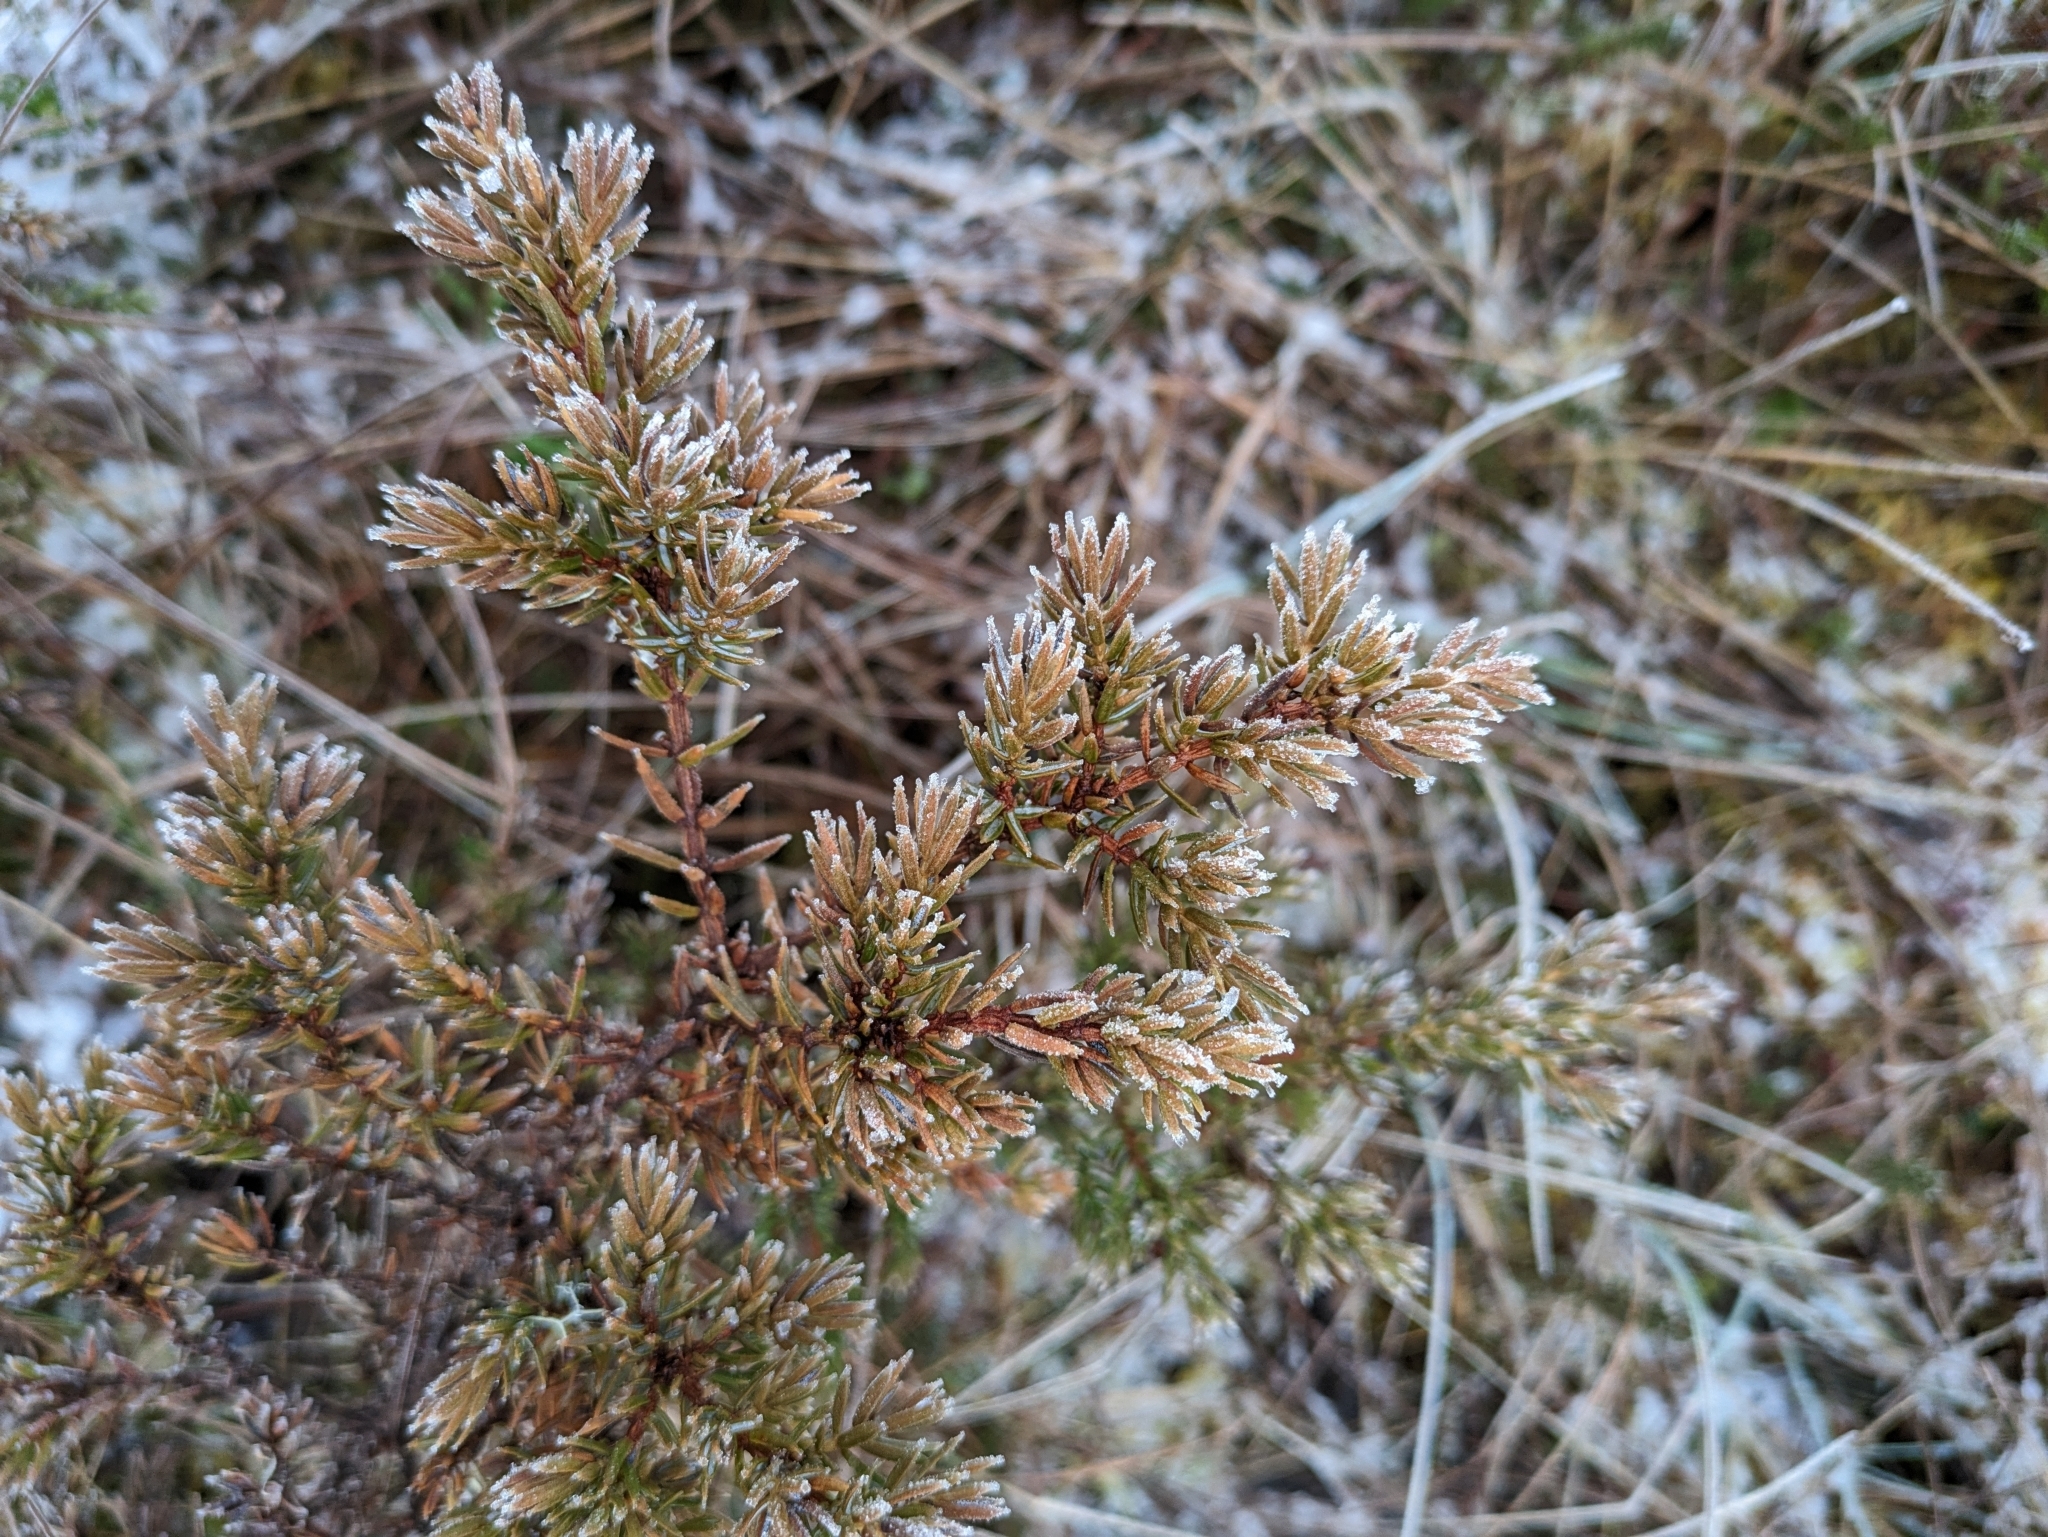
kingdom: Plantae
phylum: Tracheophyta
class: Pinopsida
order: Pinales
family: Cupressaceae
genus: Juniperus
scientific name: Juniperus communis
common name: Common juniper
